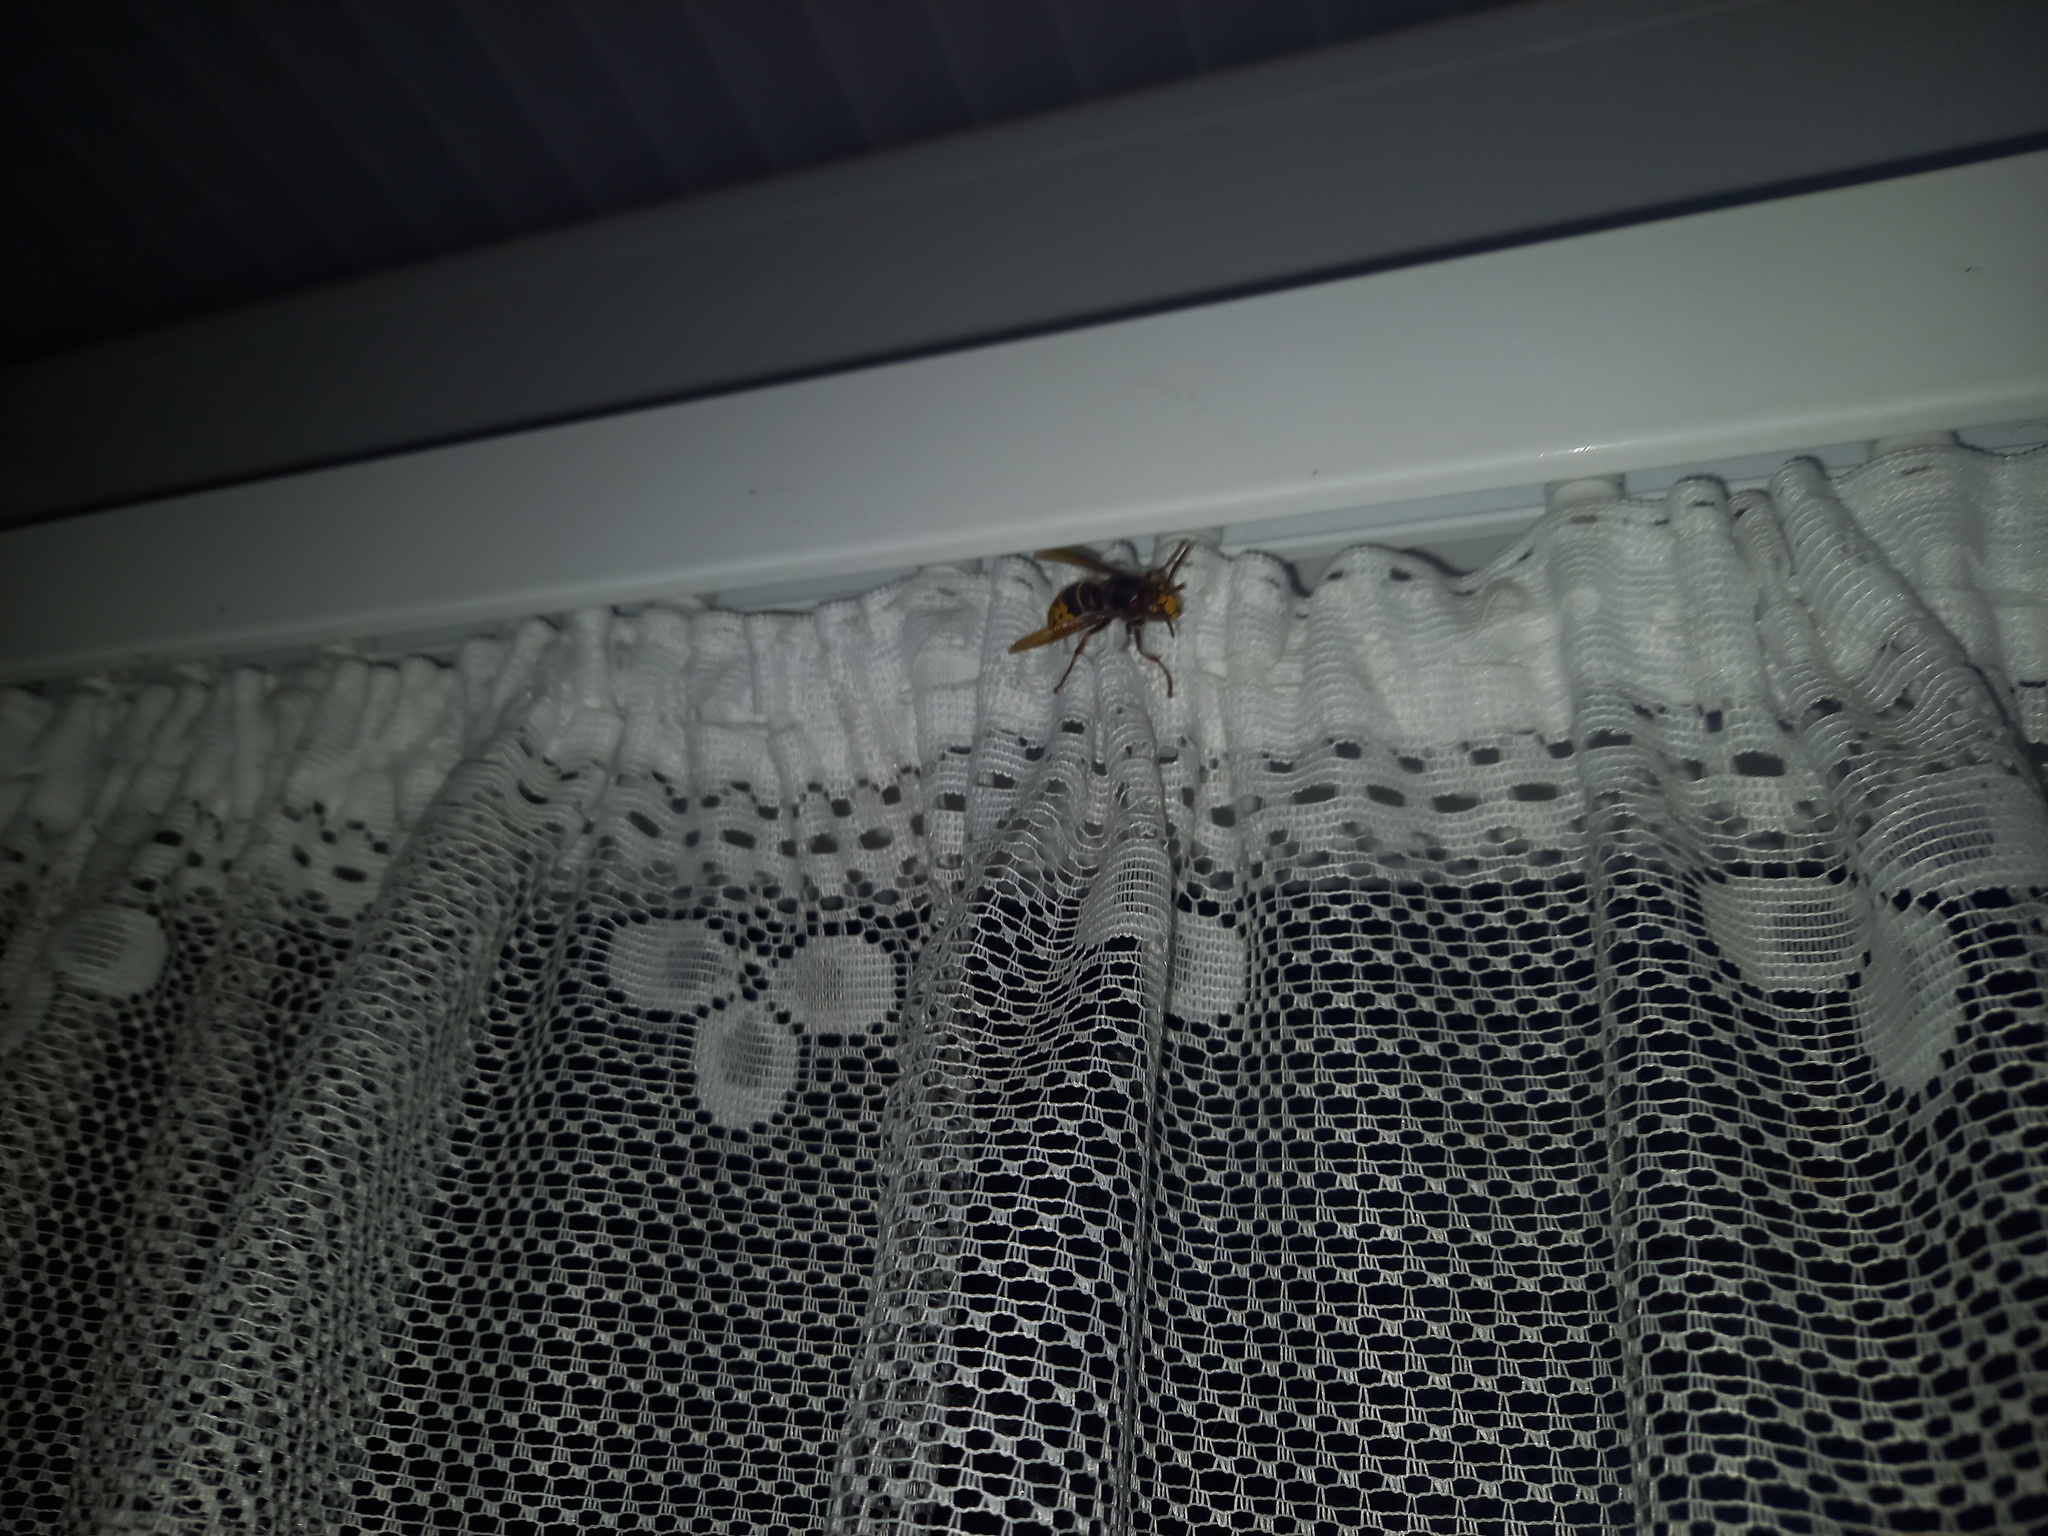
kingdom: Animalia
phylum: Arthropoda
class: Insecta
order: Hymenoptera
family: Vespidae
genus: Vespa
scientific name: Vespa crabro
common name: Hornet
